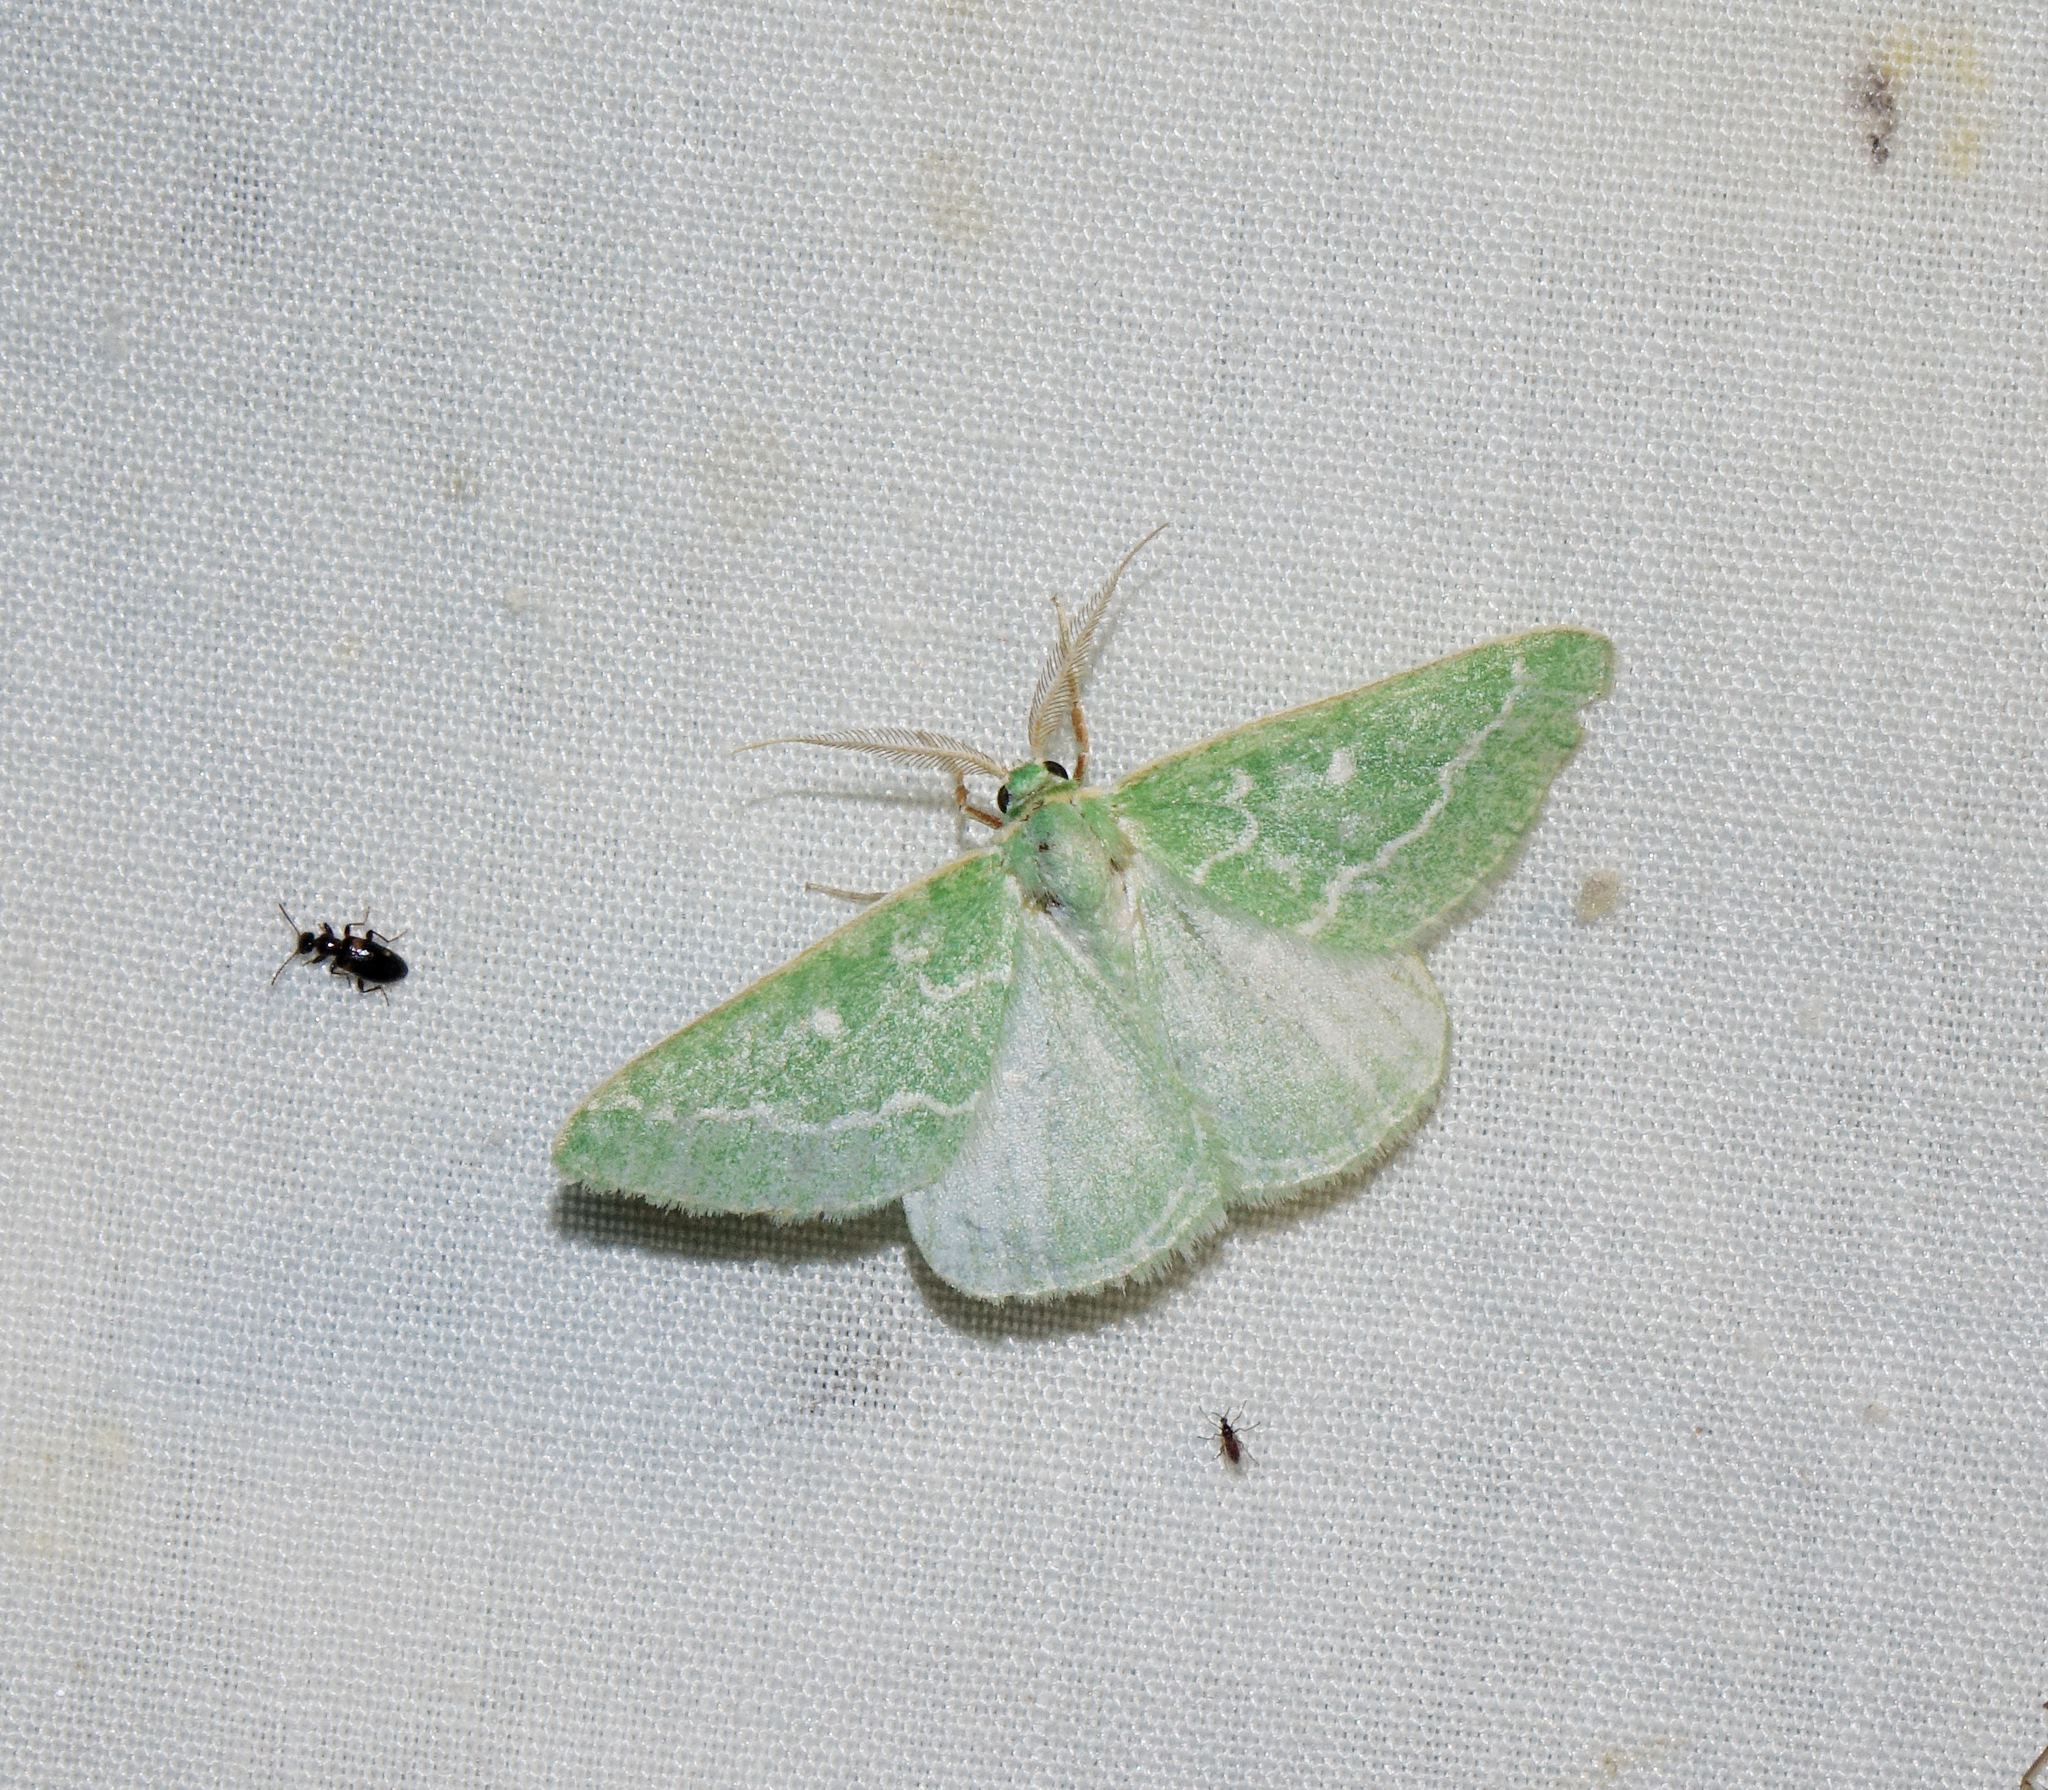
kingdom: Animalia
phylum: Arthropoda
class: Insecta
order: Lepidoptera
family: Geometridae
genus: Thetidia
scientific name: Thetidia smaragdaria
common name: Essex emerald
